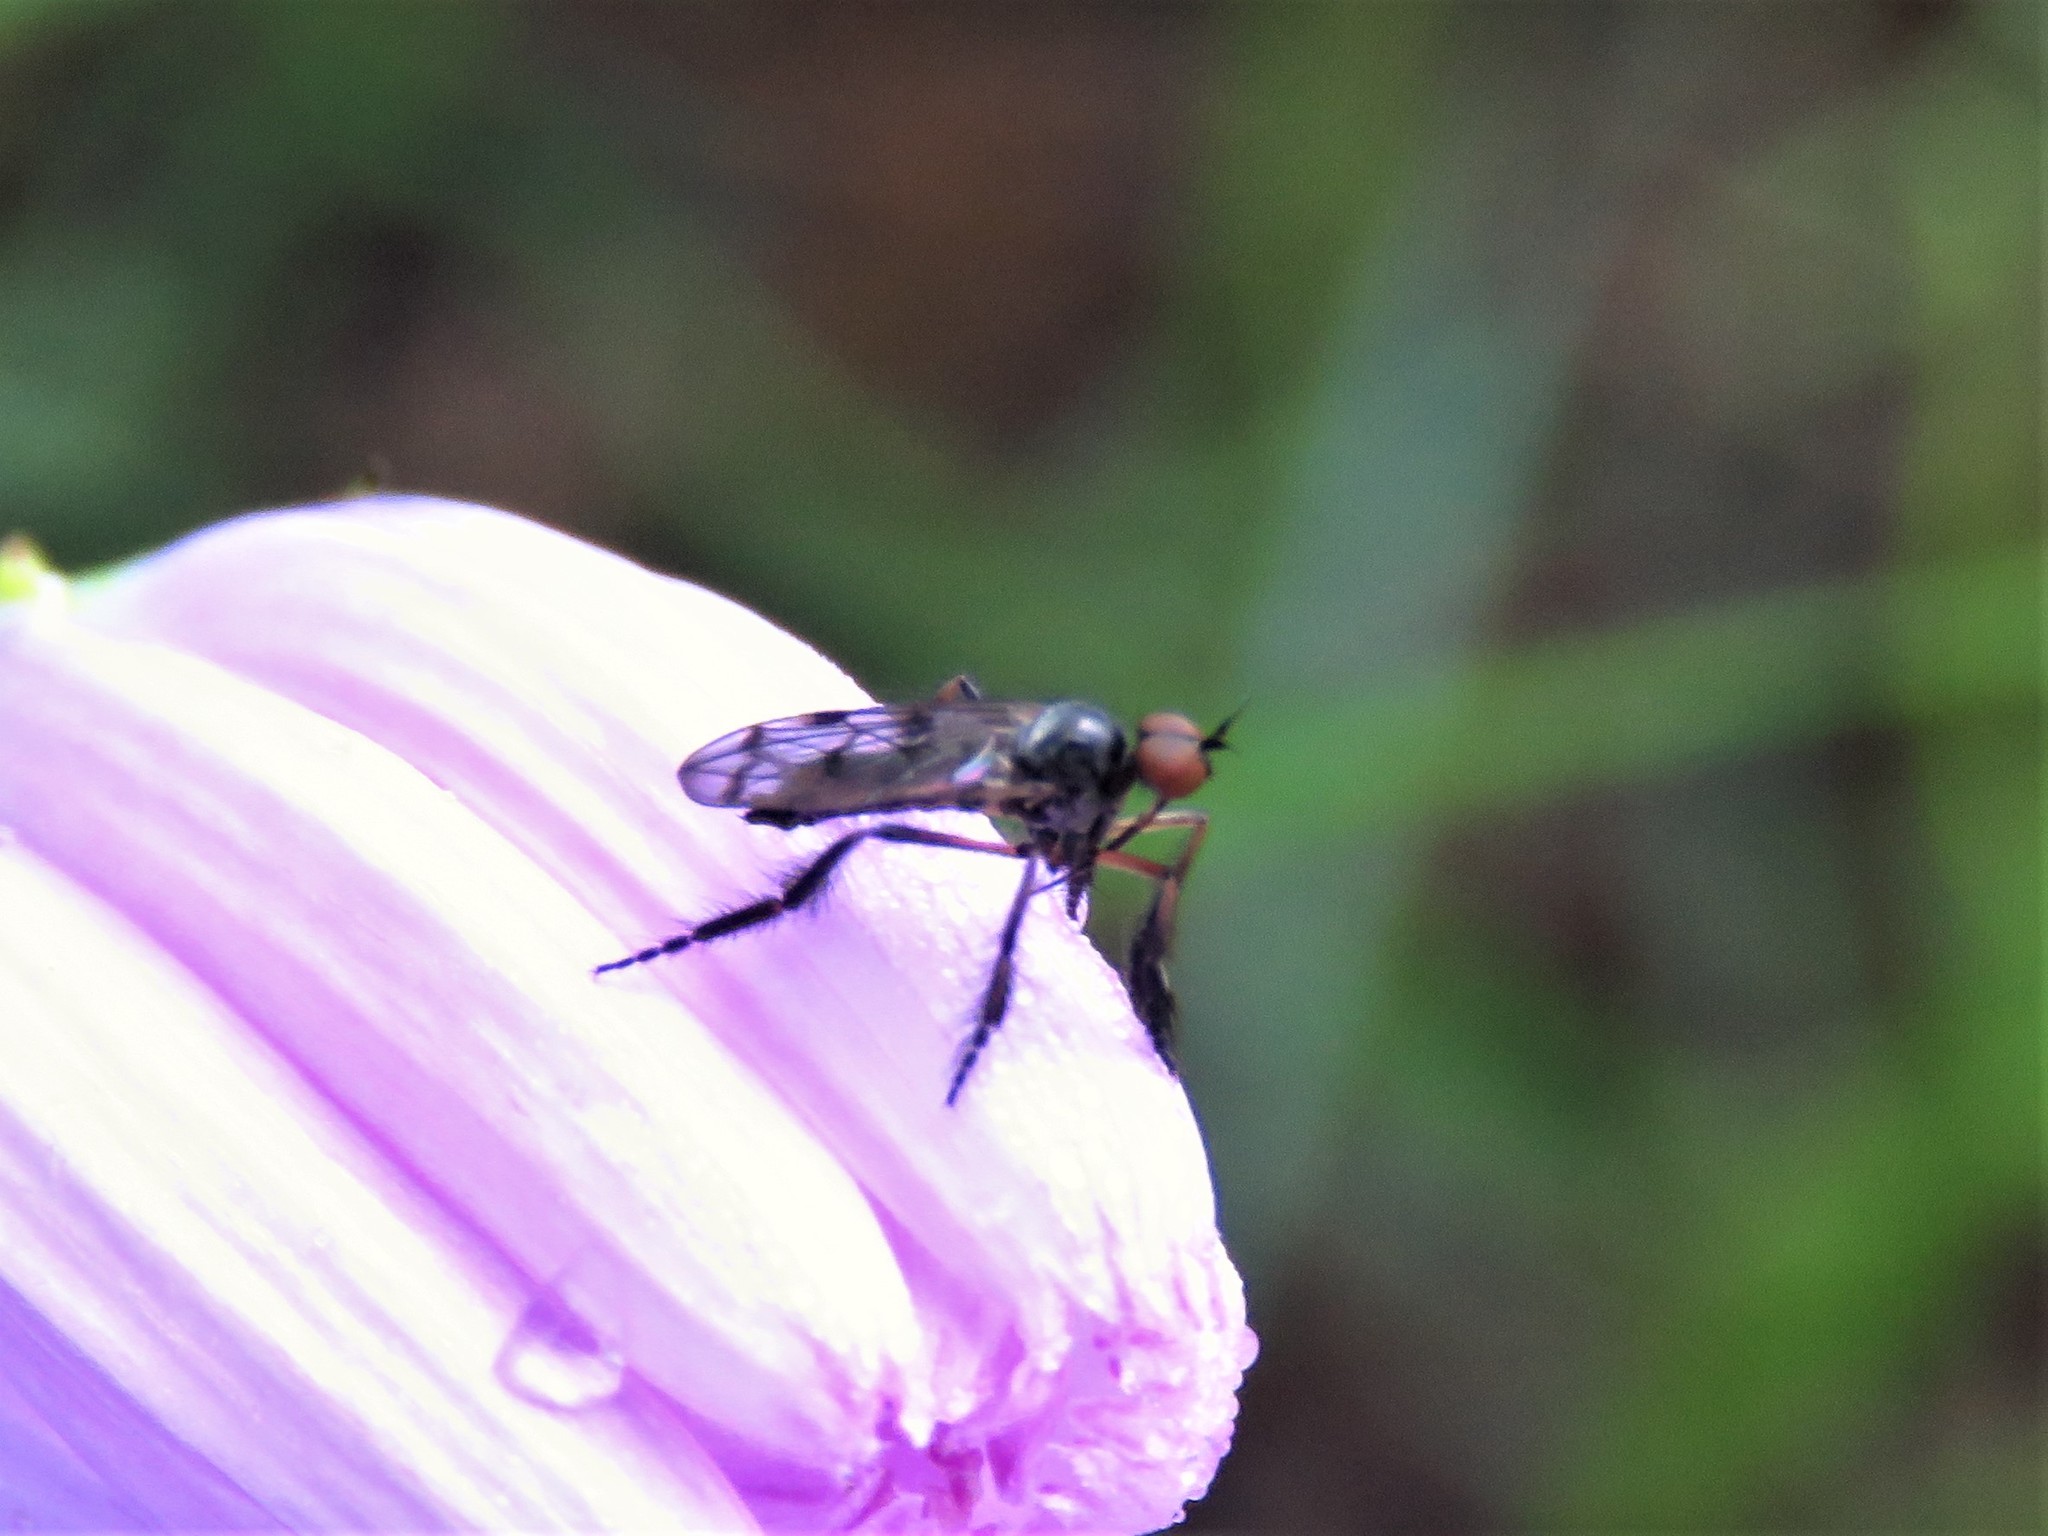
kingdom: Animalia
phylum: Arthropoda
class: Insecta
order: Diptera
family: Empididae
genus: Empis
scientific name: Empis clausa
